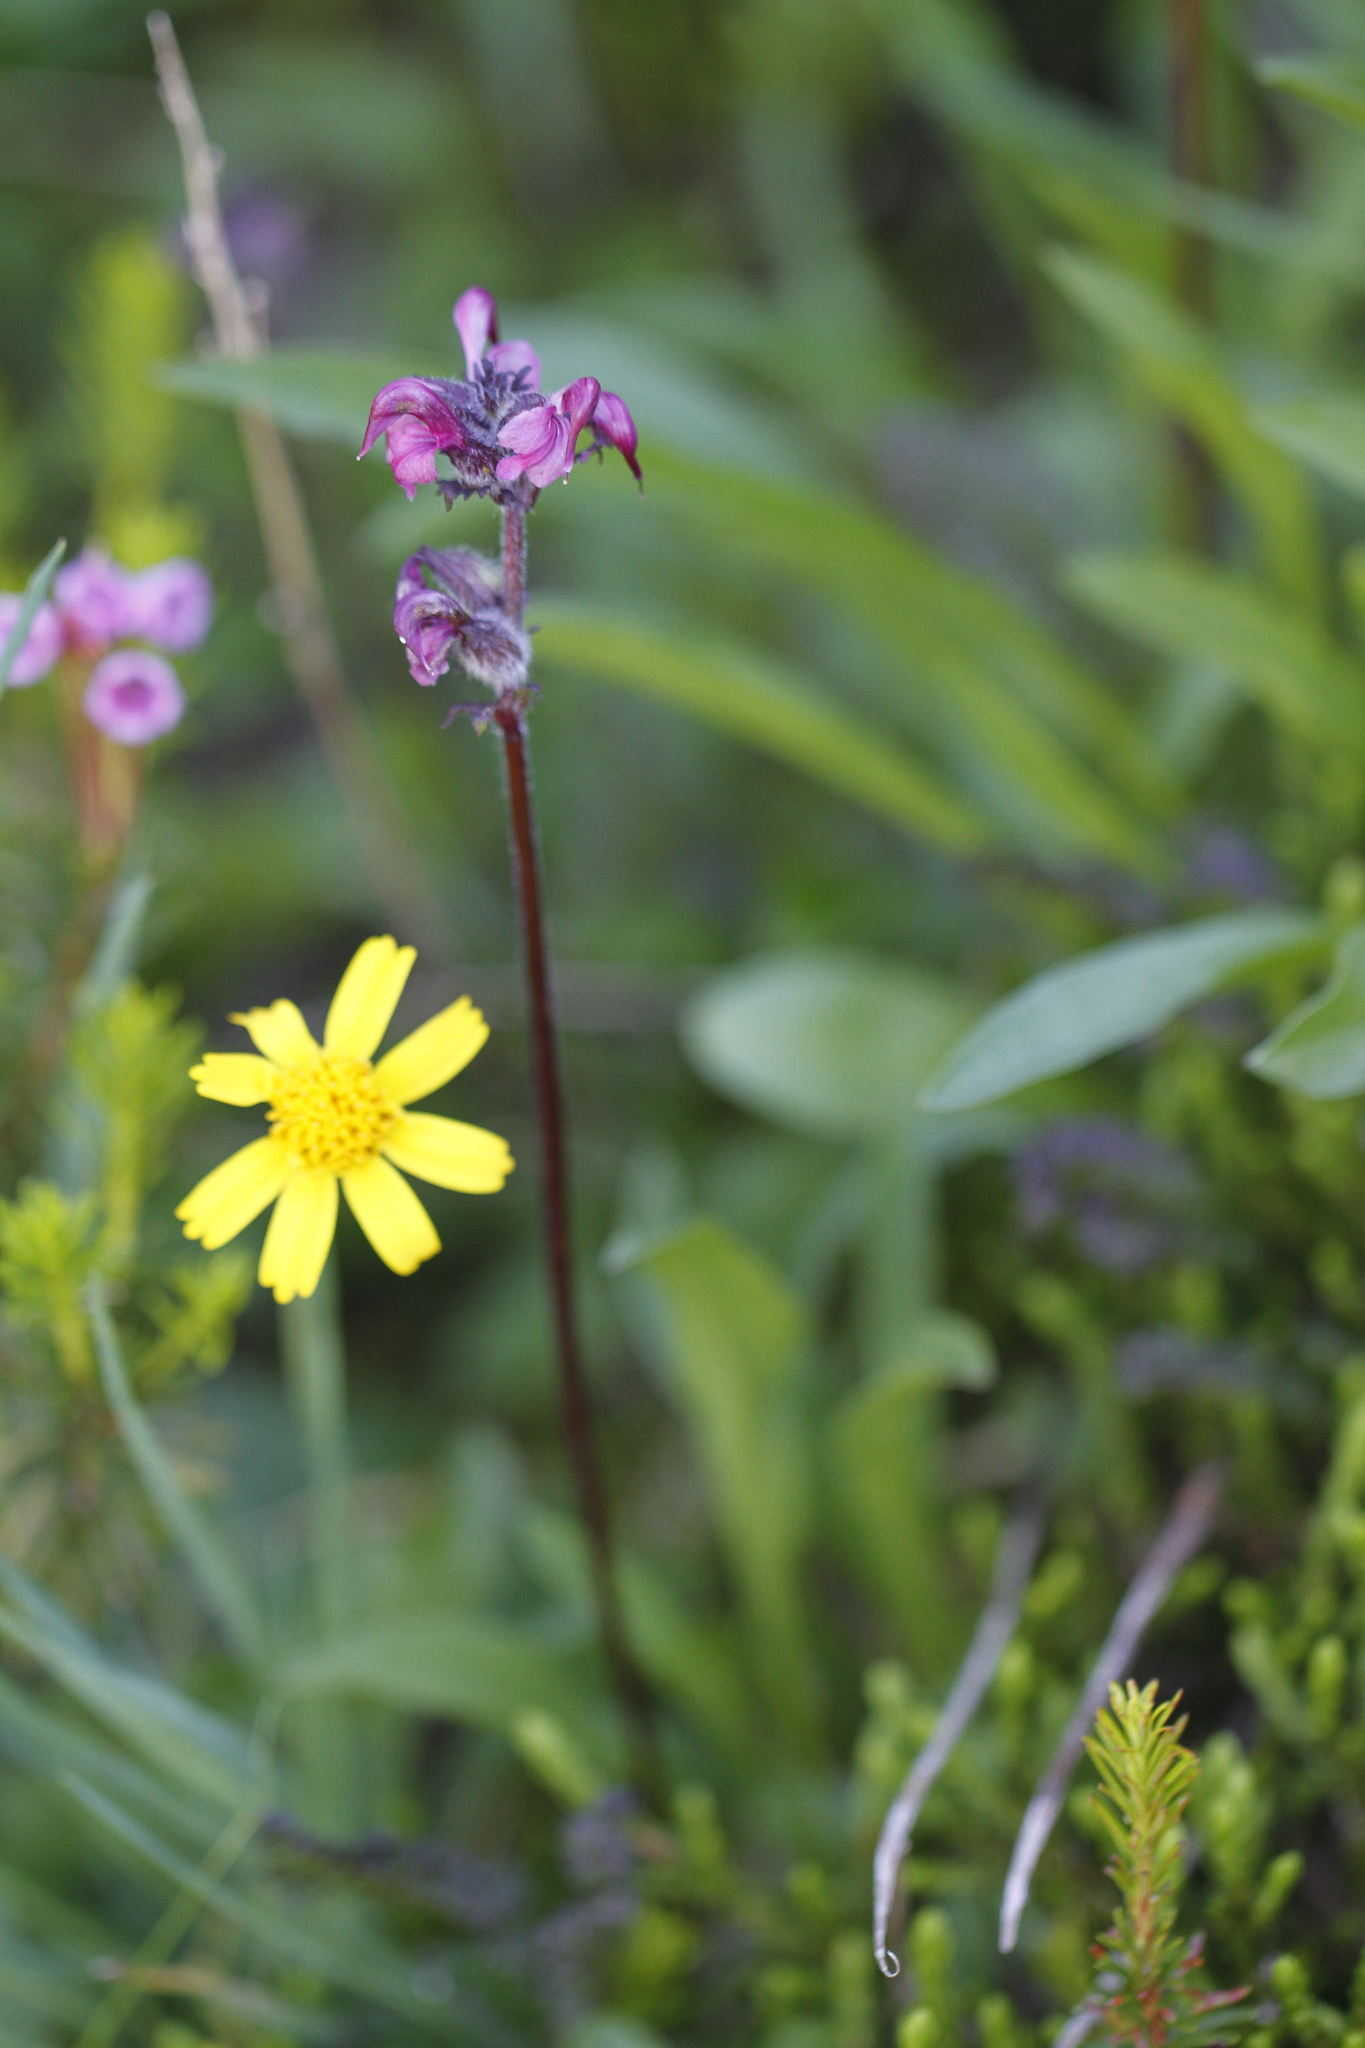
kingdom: Plantae
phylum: Tracheophyta
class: Magnoliopsida
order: Lamiales
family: Orobanchaceae
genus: Pedicularis
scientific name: Pedicularis ornithorhynchos
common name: Bird's-beak lousewort
